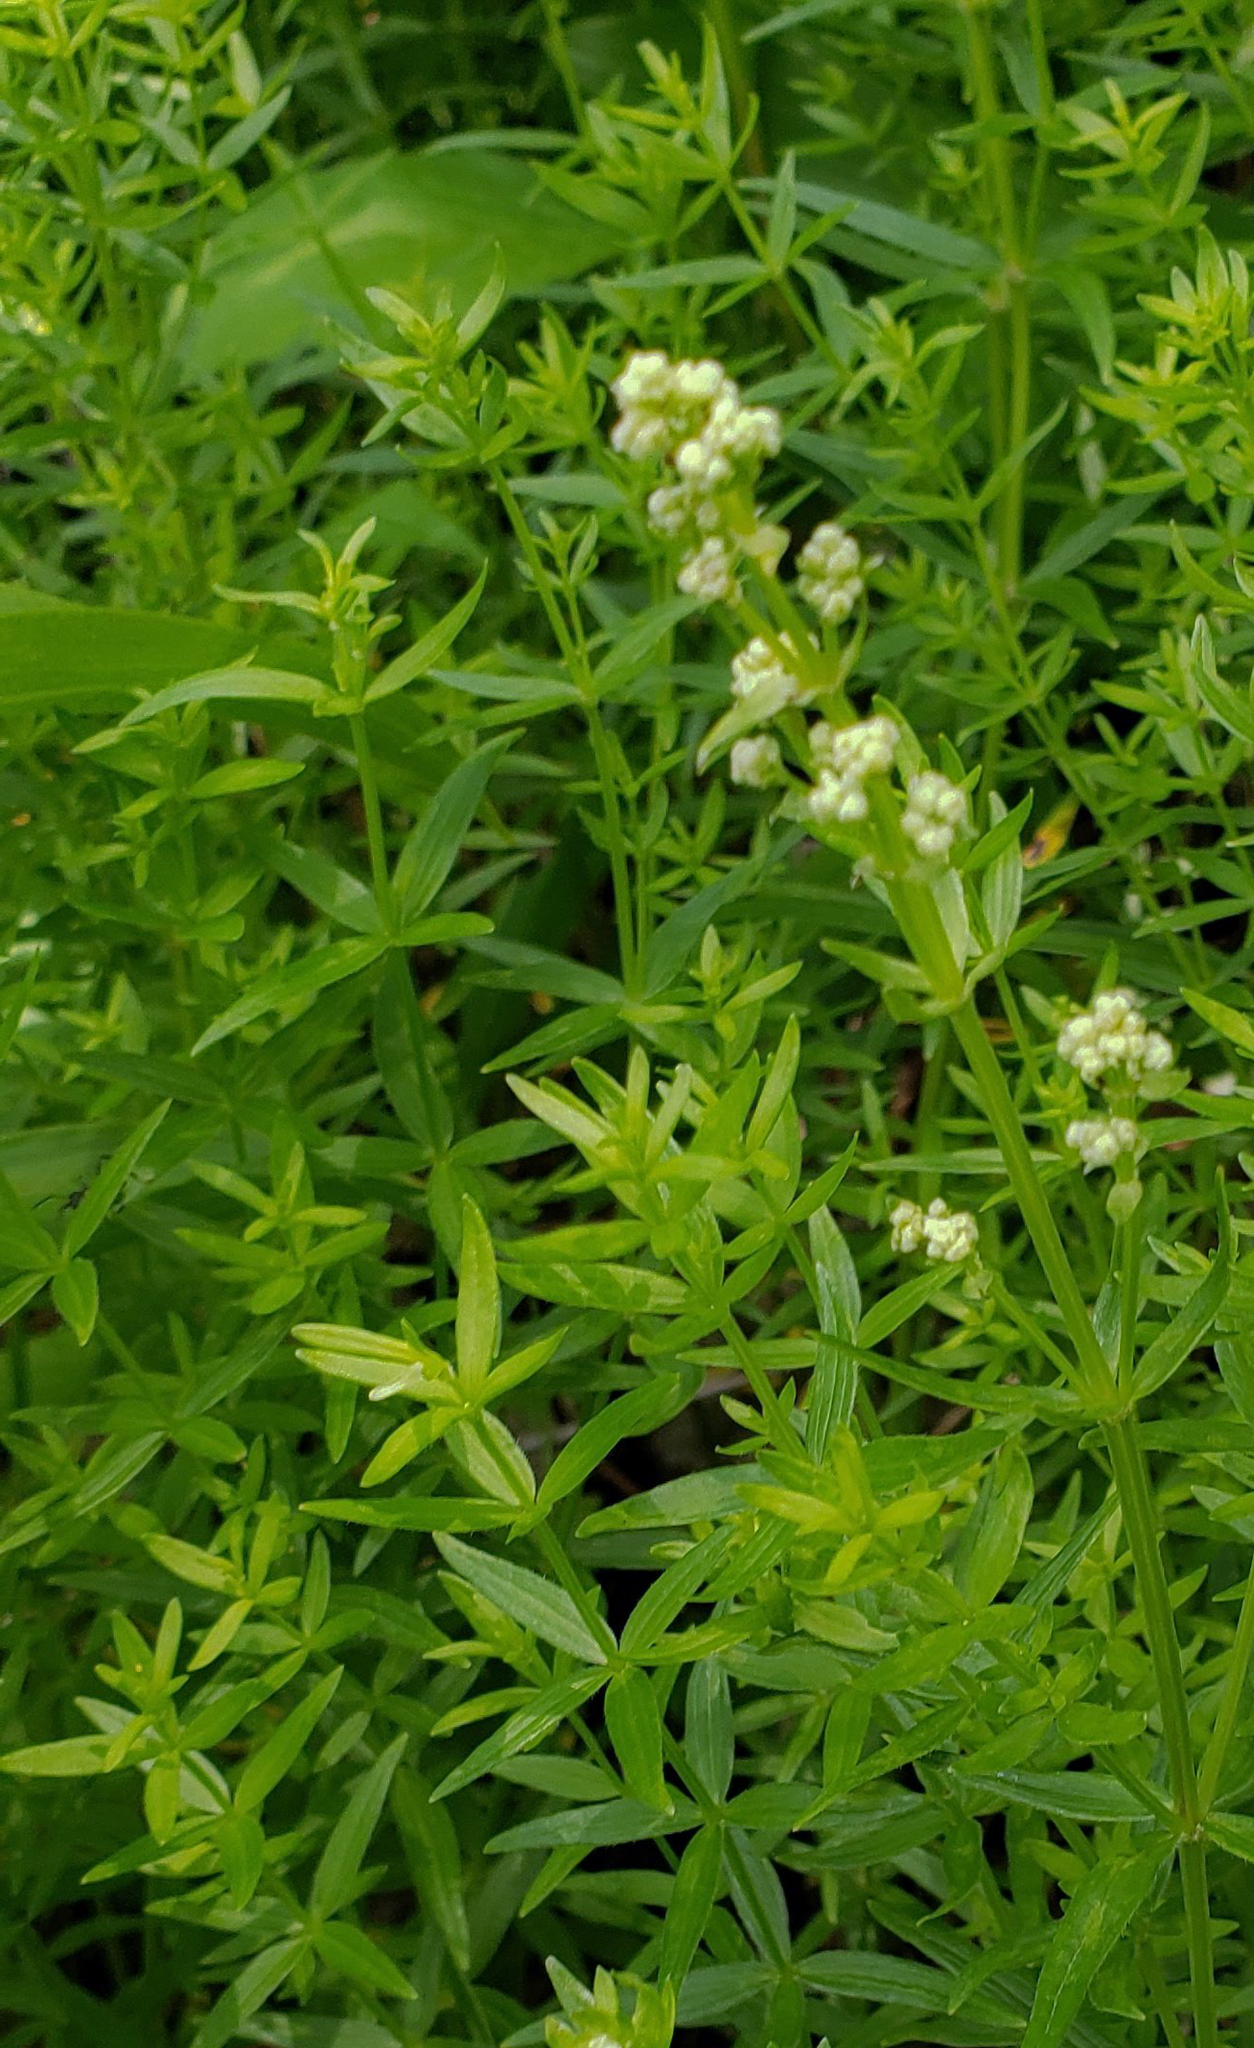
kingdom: Plantae
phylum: Tracheophyta
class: Magnoliopsida
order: Gentianales
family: Rubiaceae
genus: Galium
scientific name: Galium boreale
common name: Northern bedstraw
